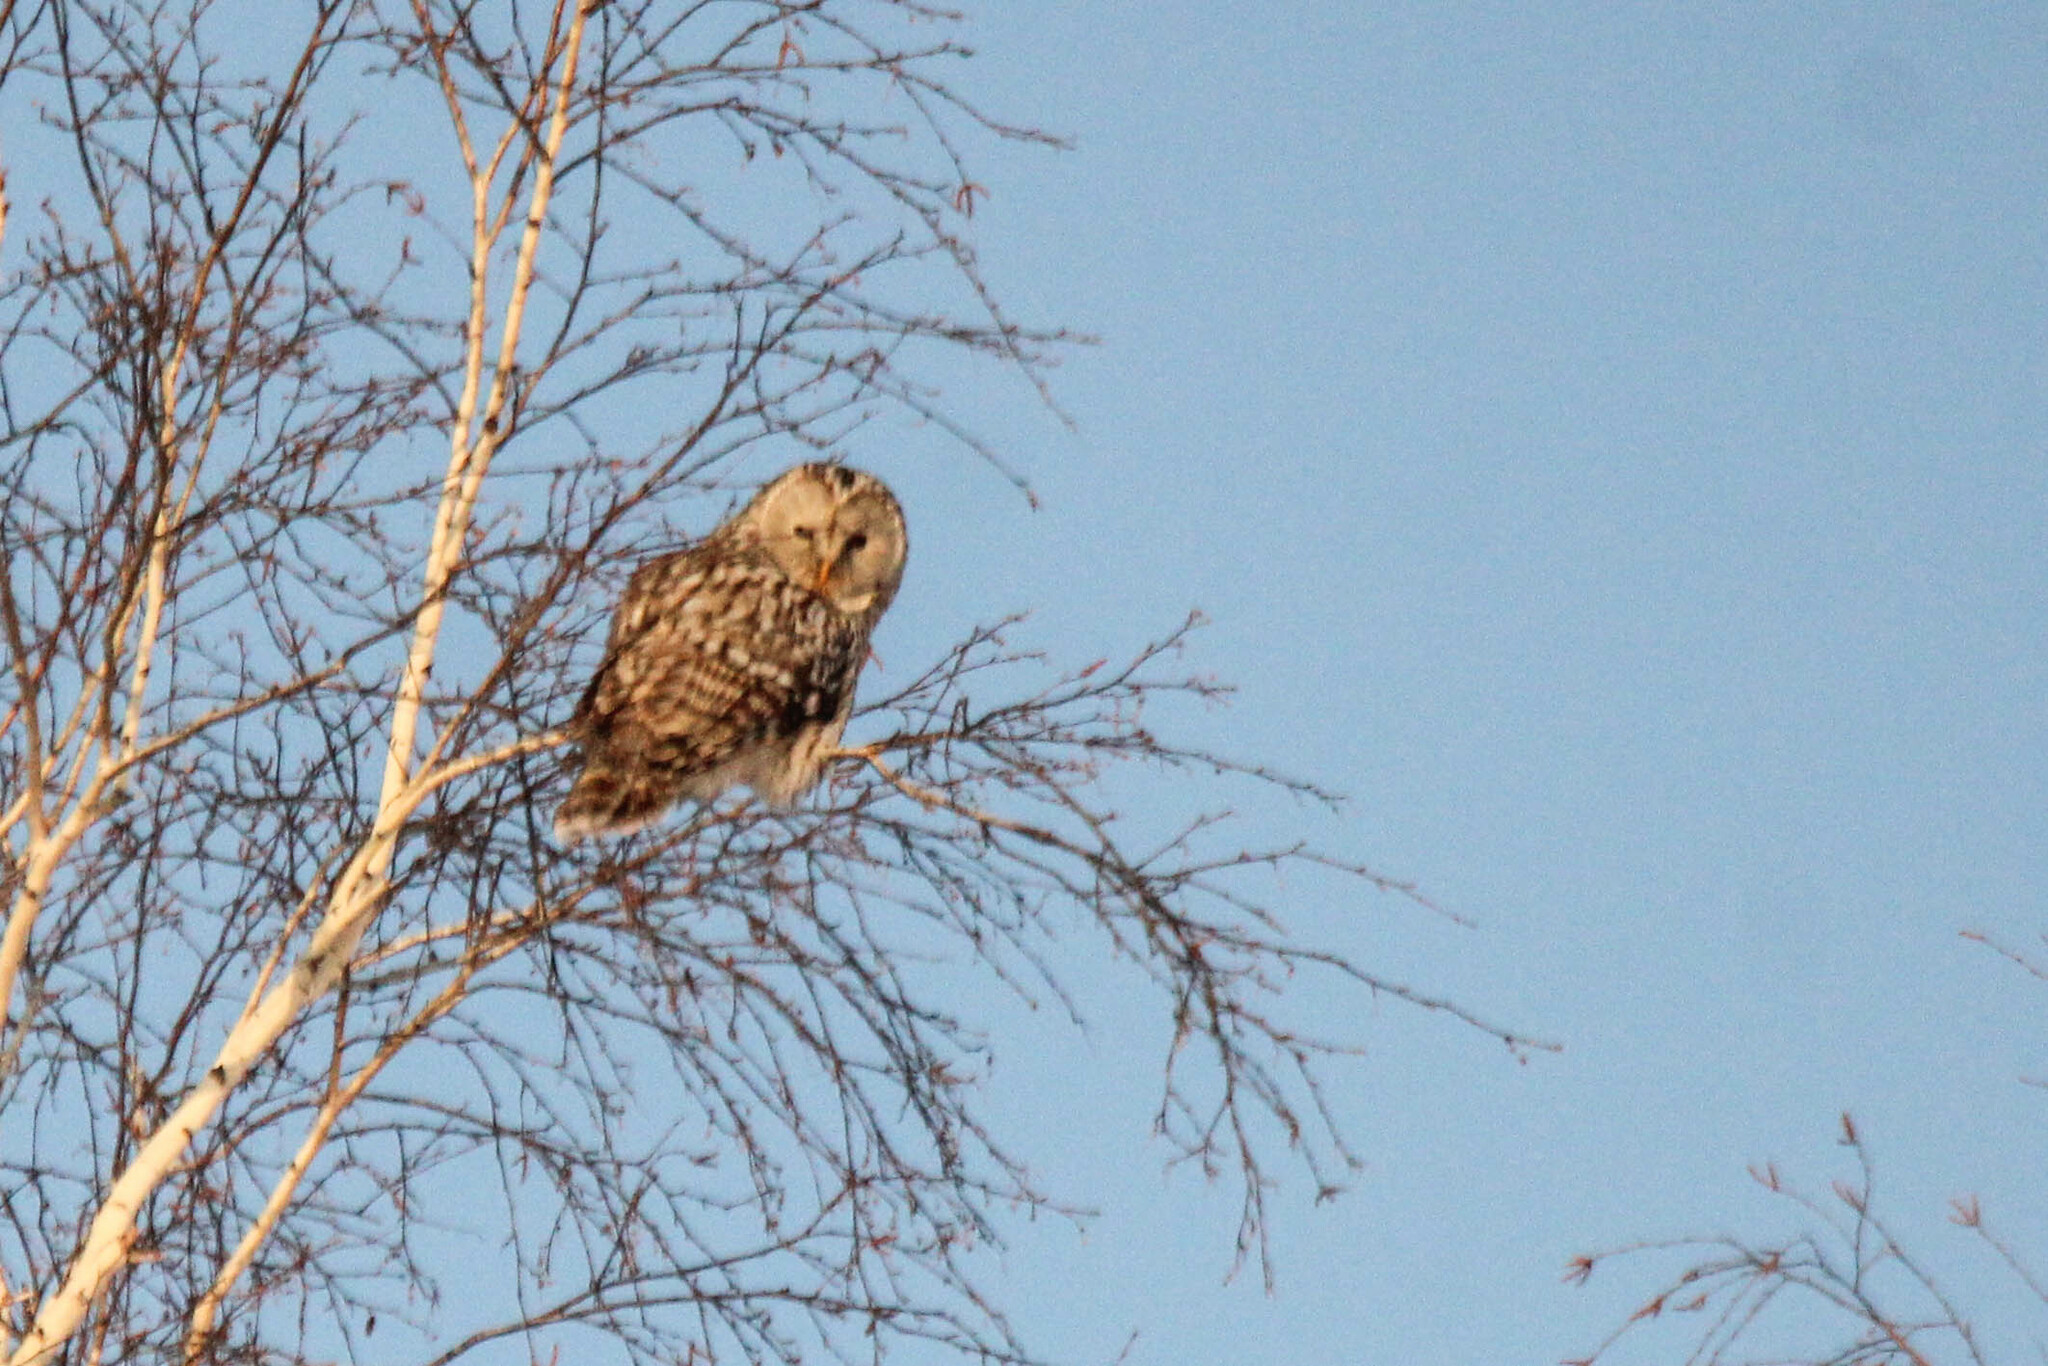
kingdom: Animalia
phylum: Chordata
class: Aves
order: Strigiformes
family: Strigidae
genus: Strix
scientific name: Strix uralensis
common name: Ural owl
